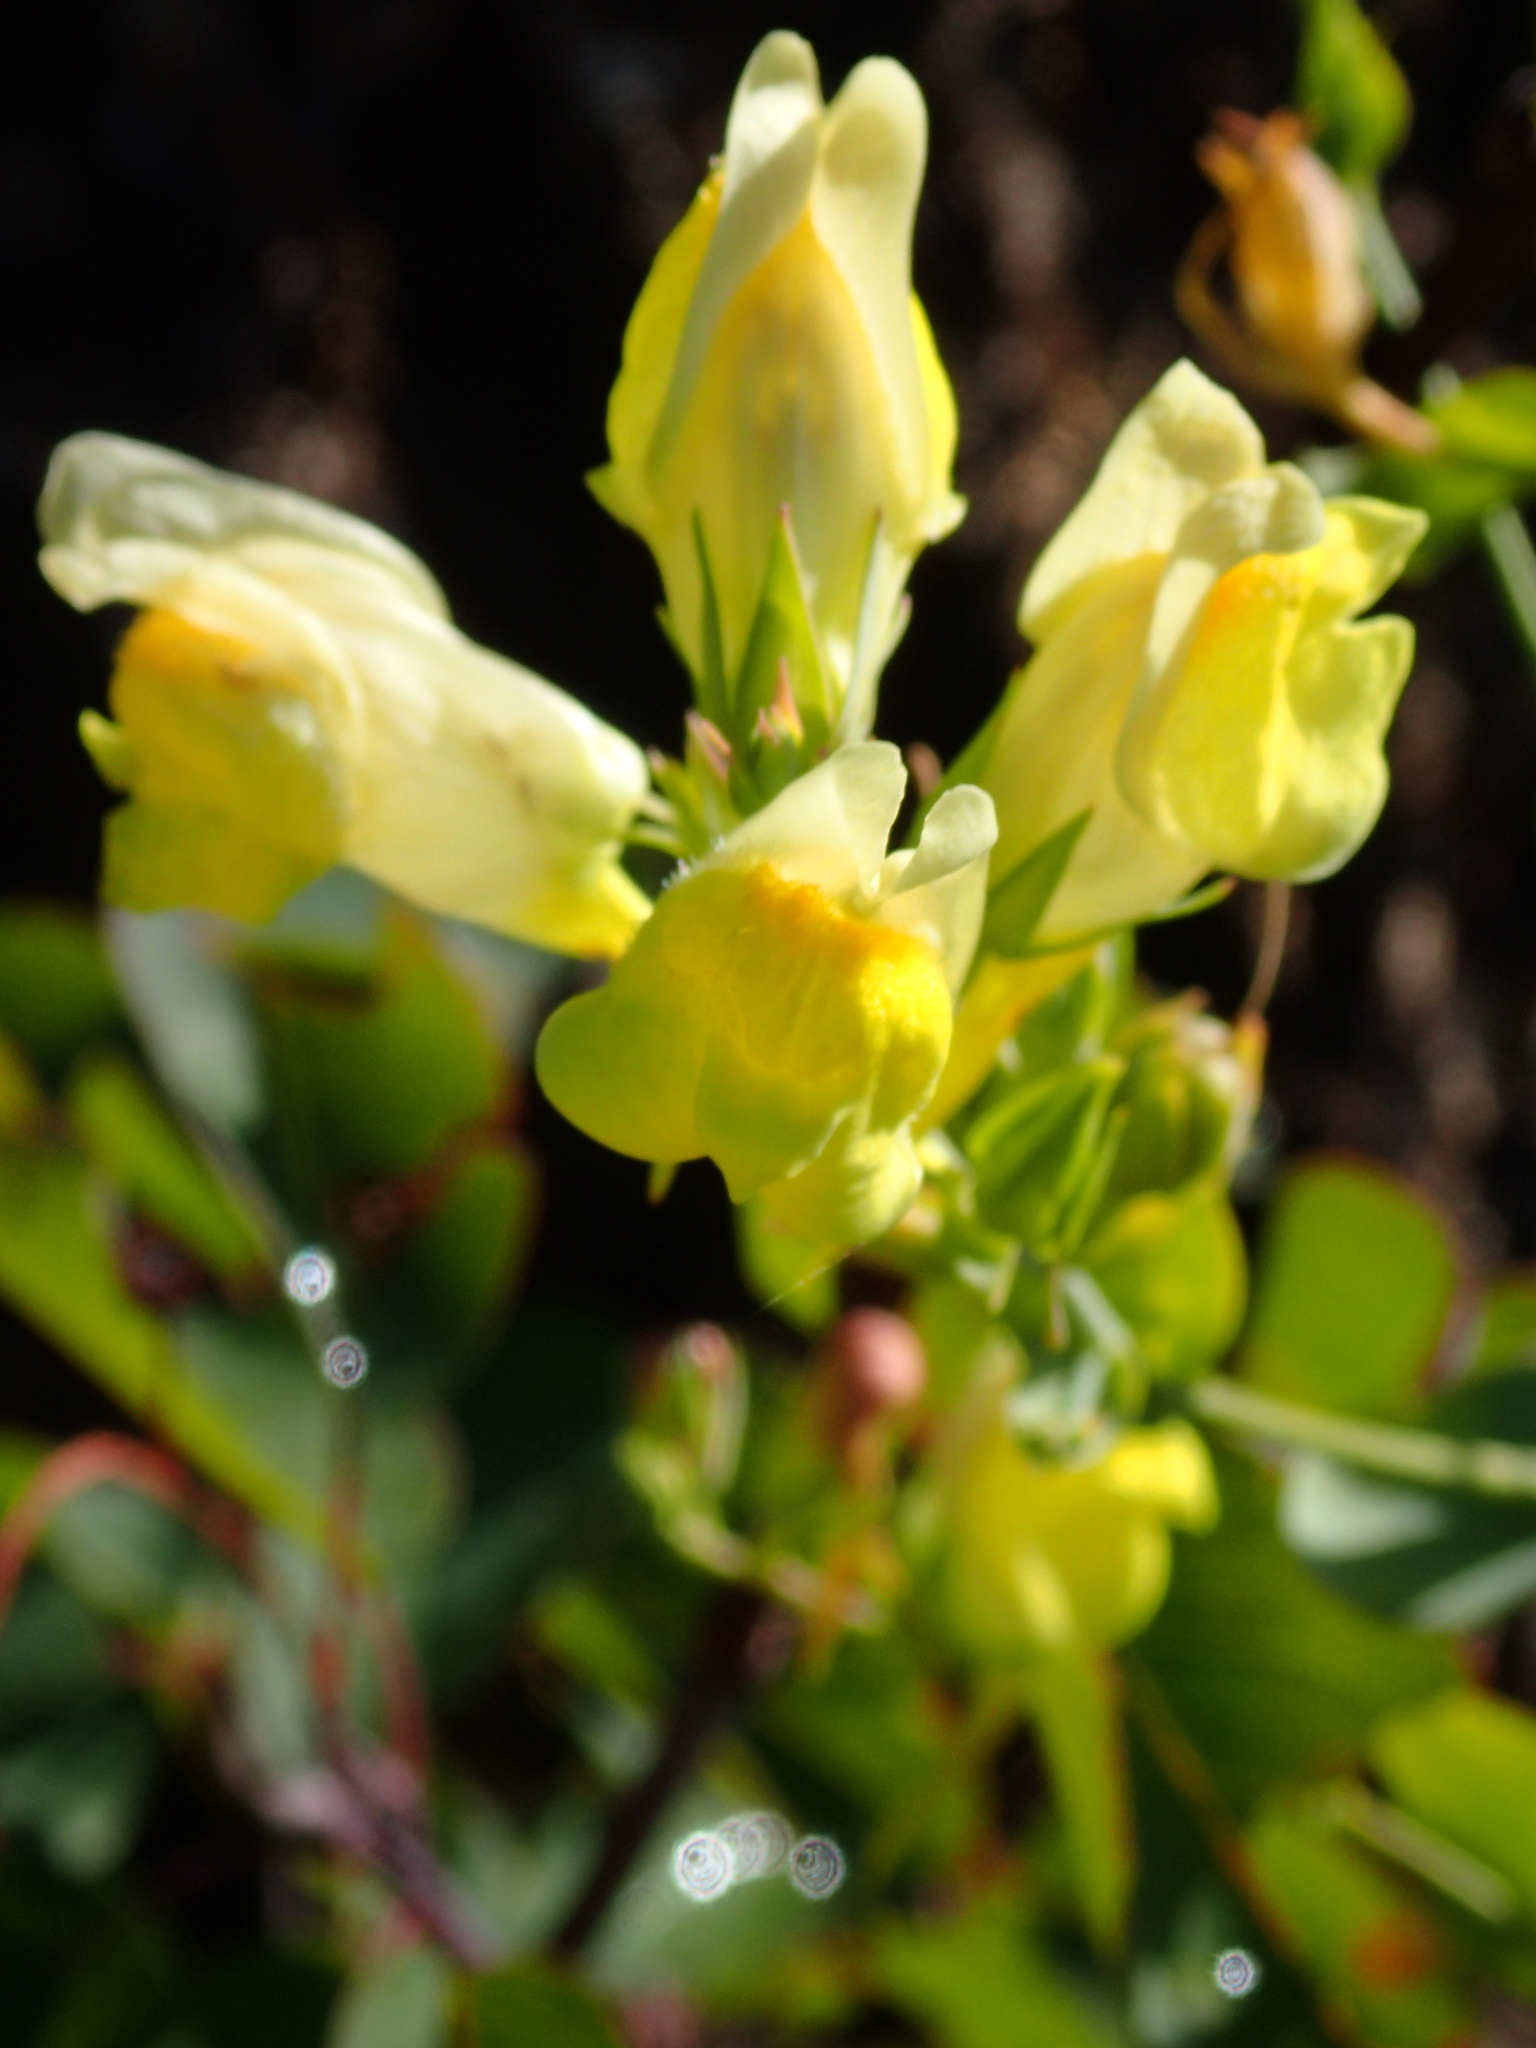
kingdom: Plantae
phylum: Tracheophyta
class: Magnoliopsida
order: Lamiales
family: Plantaginaceae
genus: Linaria
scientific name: Linaria dalmatica
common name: Dalmatian toadflax
